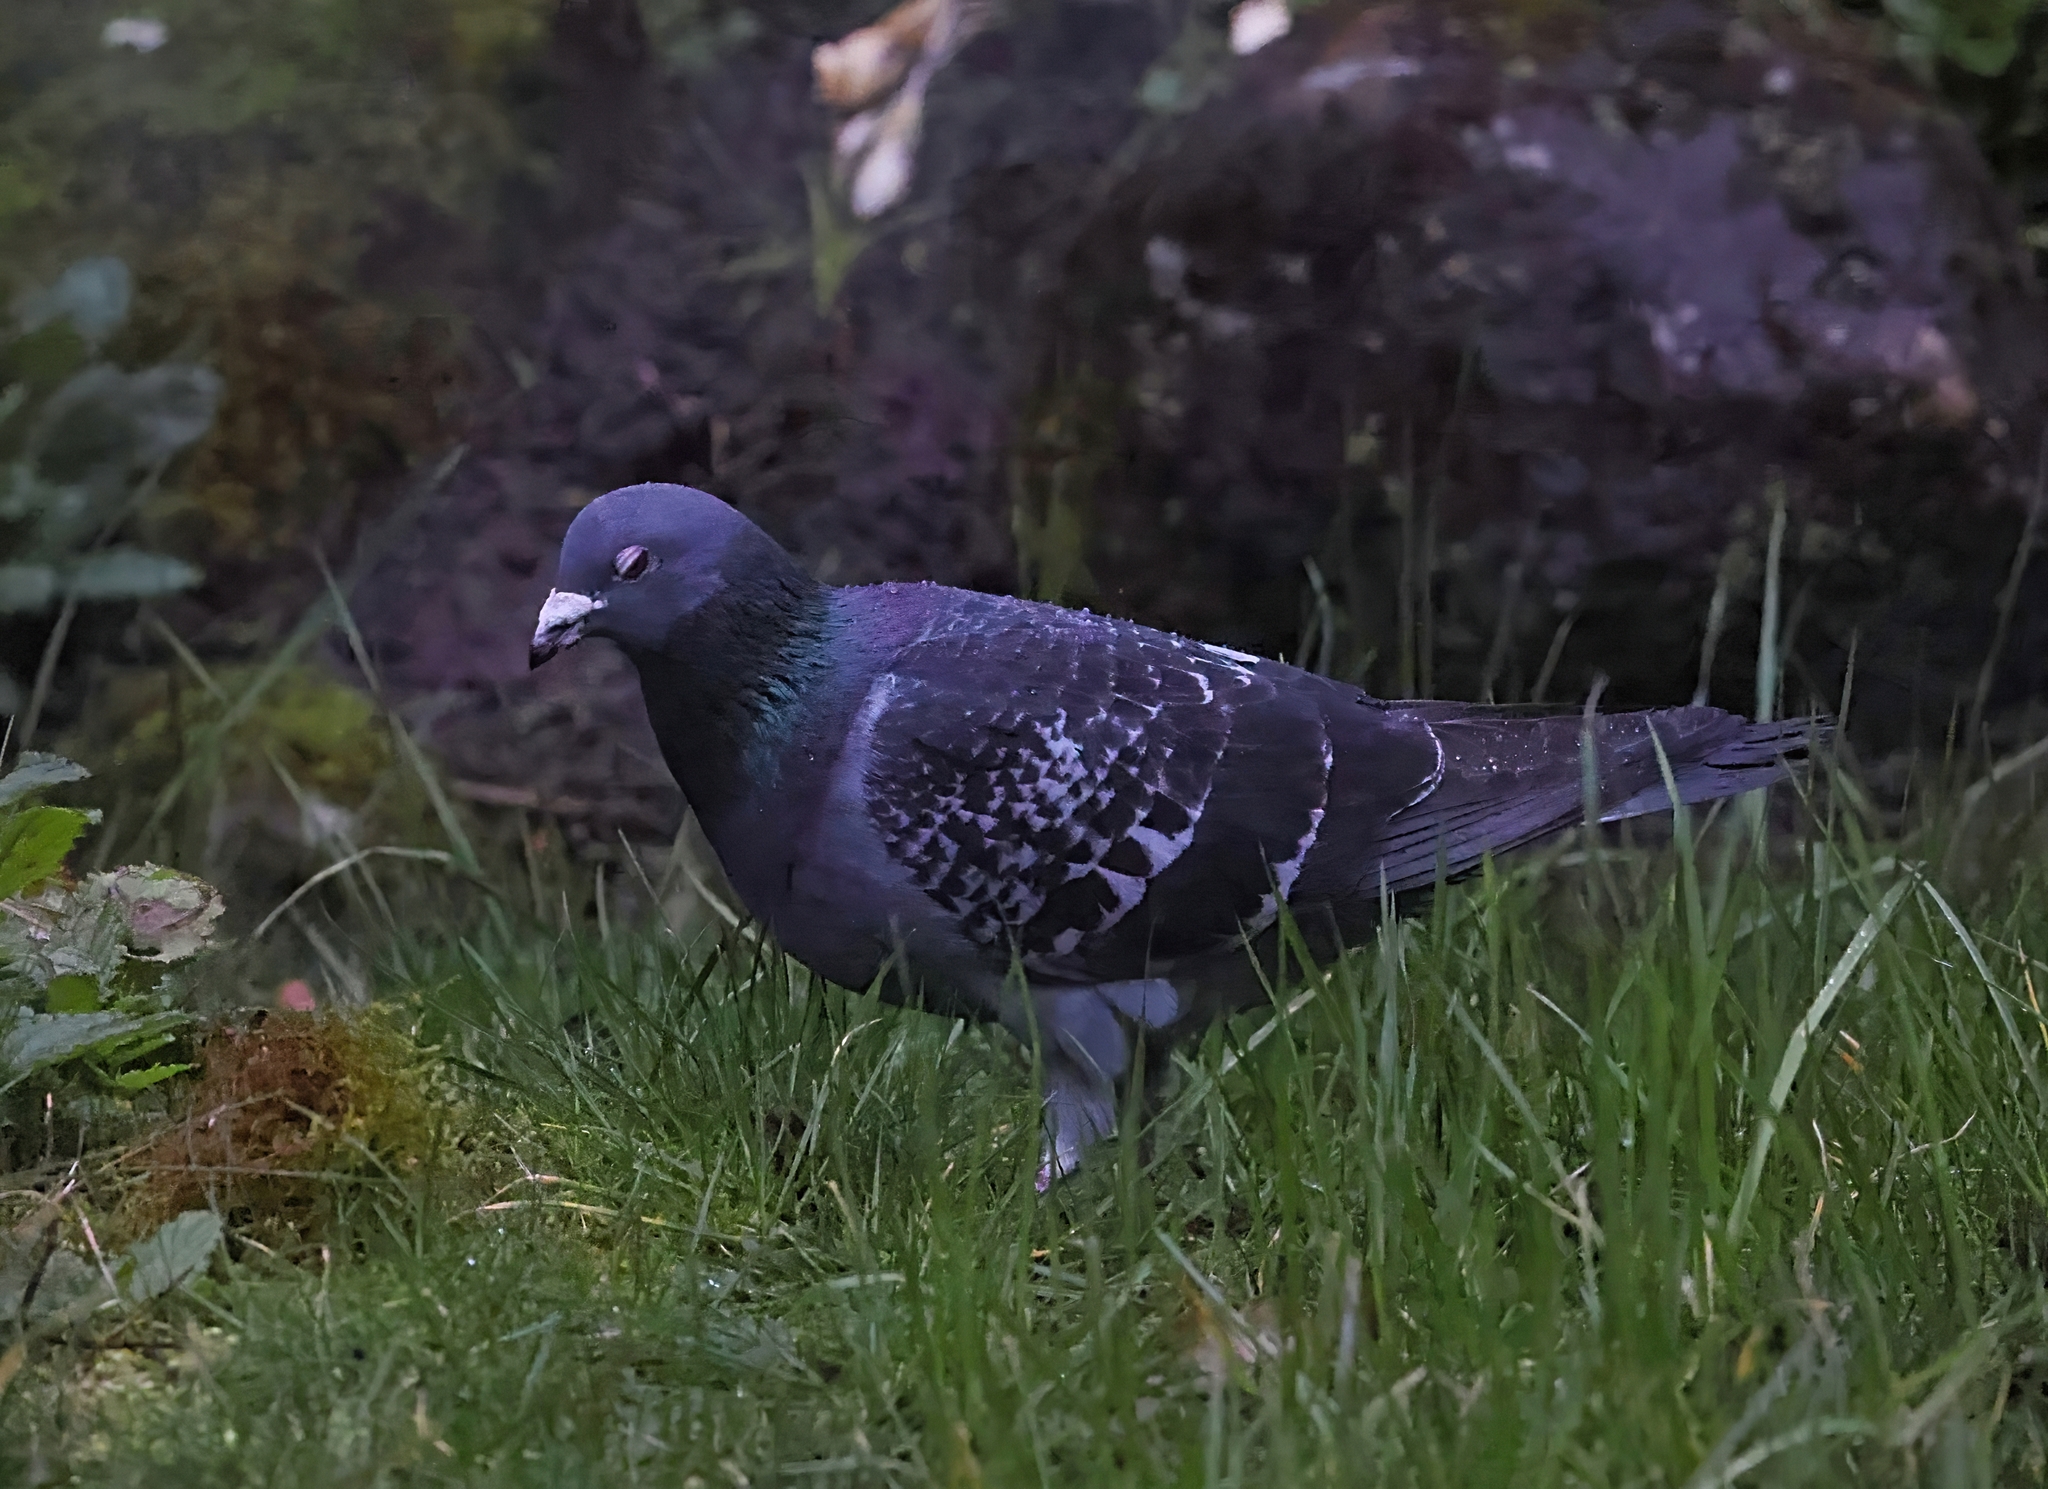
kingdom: Animalia
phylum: Chordata
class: Aves
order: Columbiformes
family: Columbidae
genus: Columba
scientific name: Columba livia
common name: Rock pigeon
